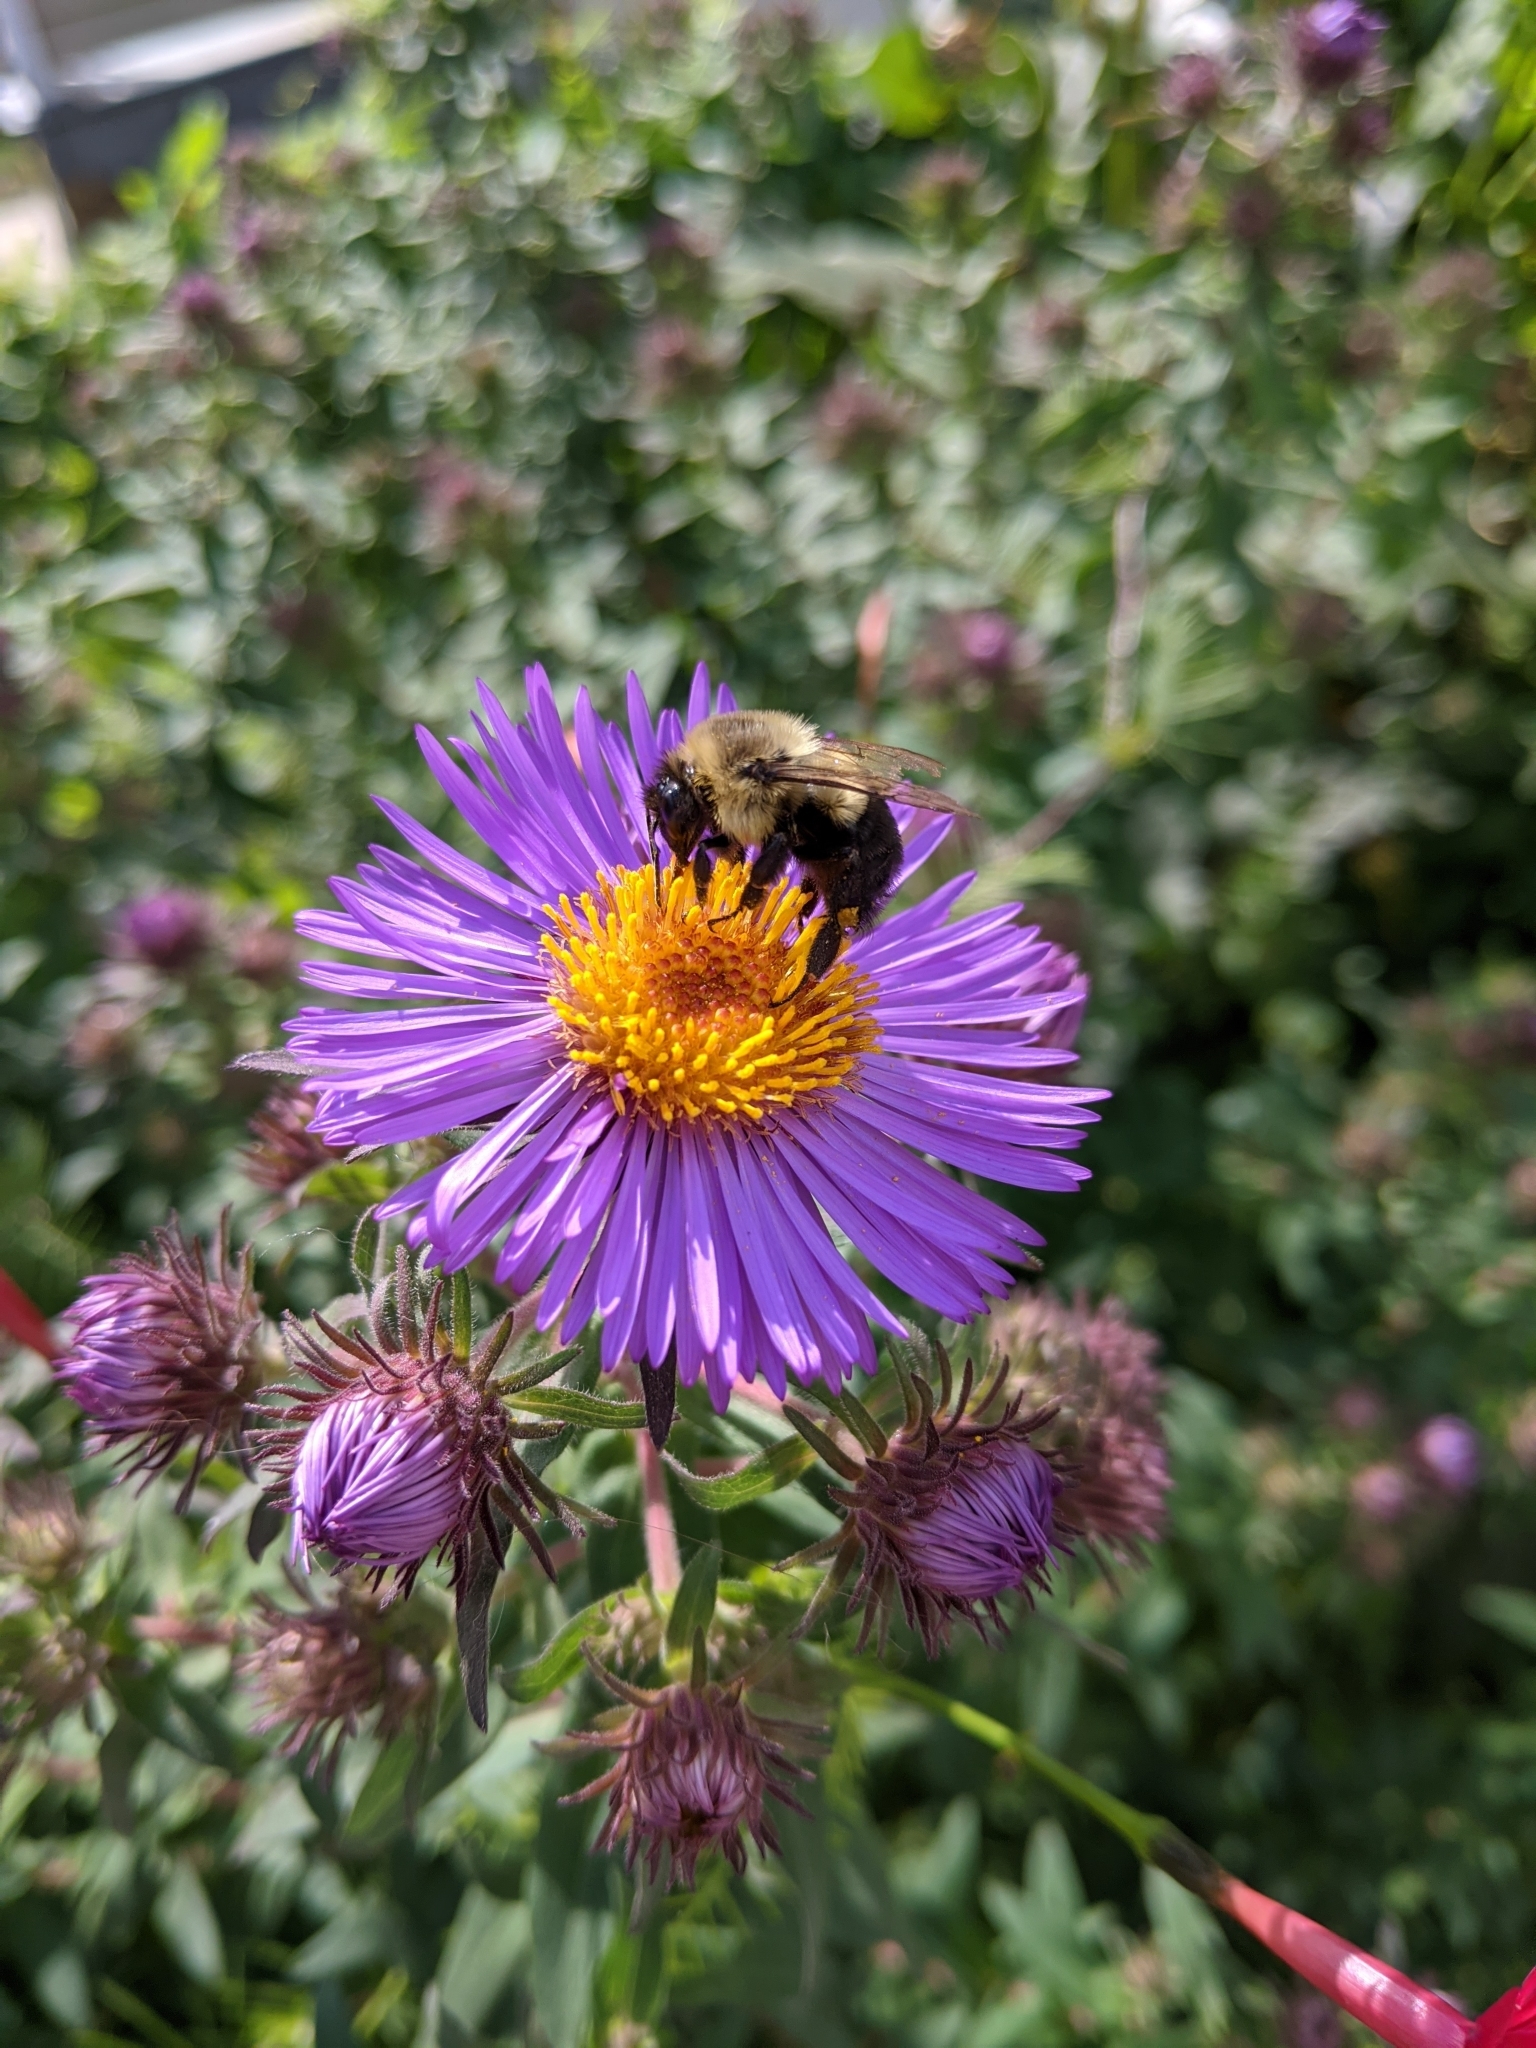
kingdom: Animalia
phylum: Arthropoda
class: Insecta
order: Hymenoptera
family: Apidae
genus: Bombus
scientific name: Bombus impatiens
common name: Common eastern bumble bee
